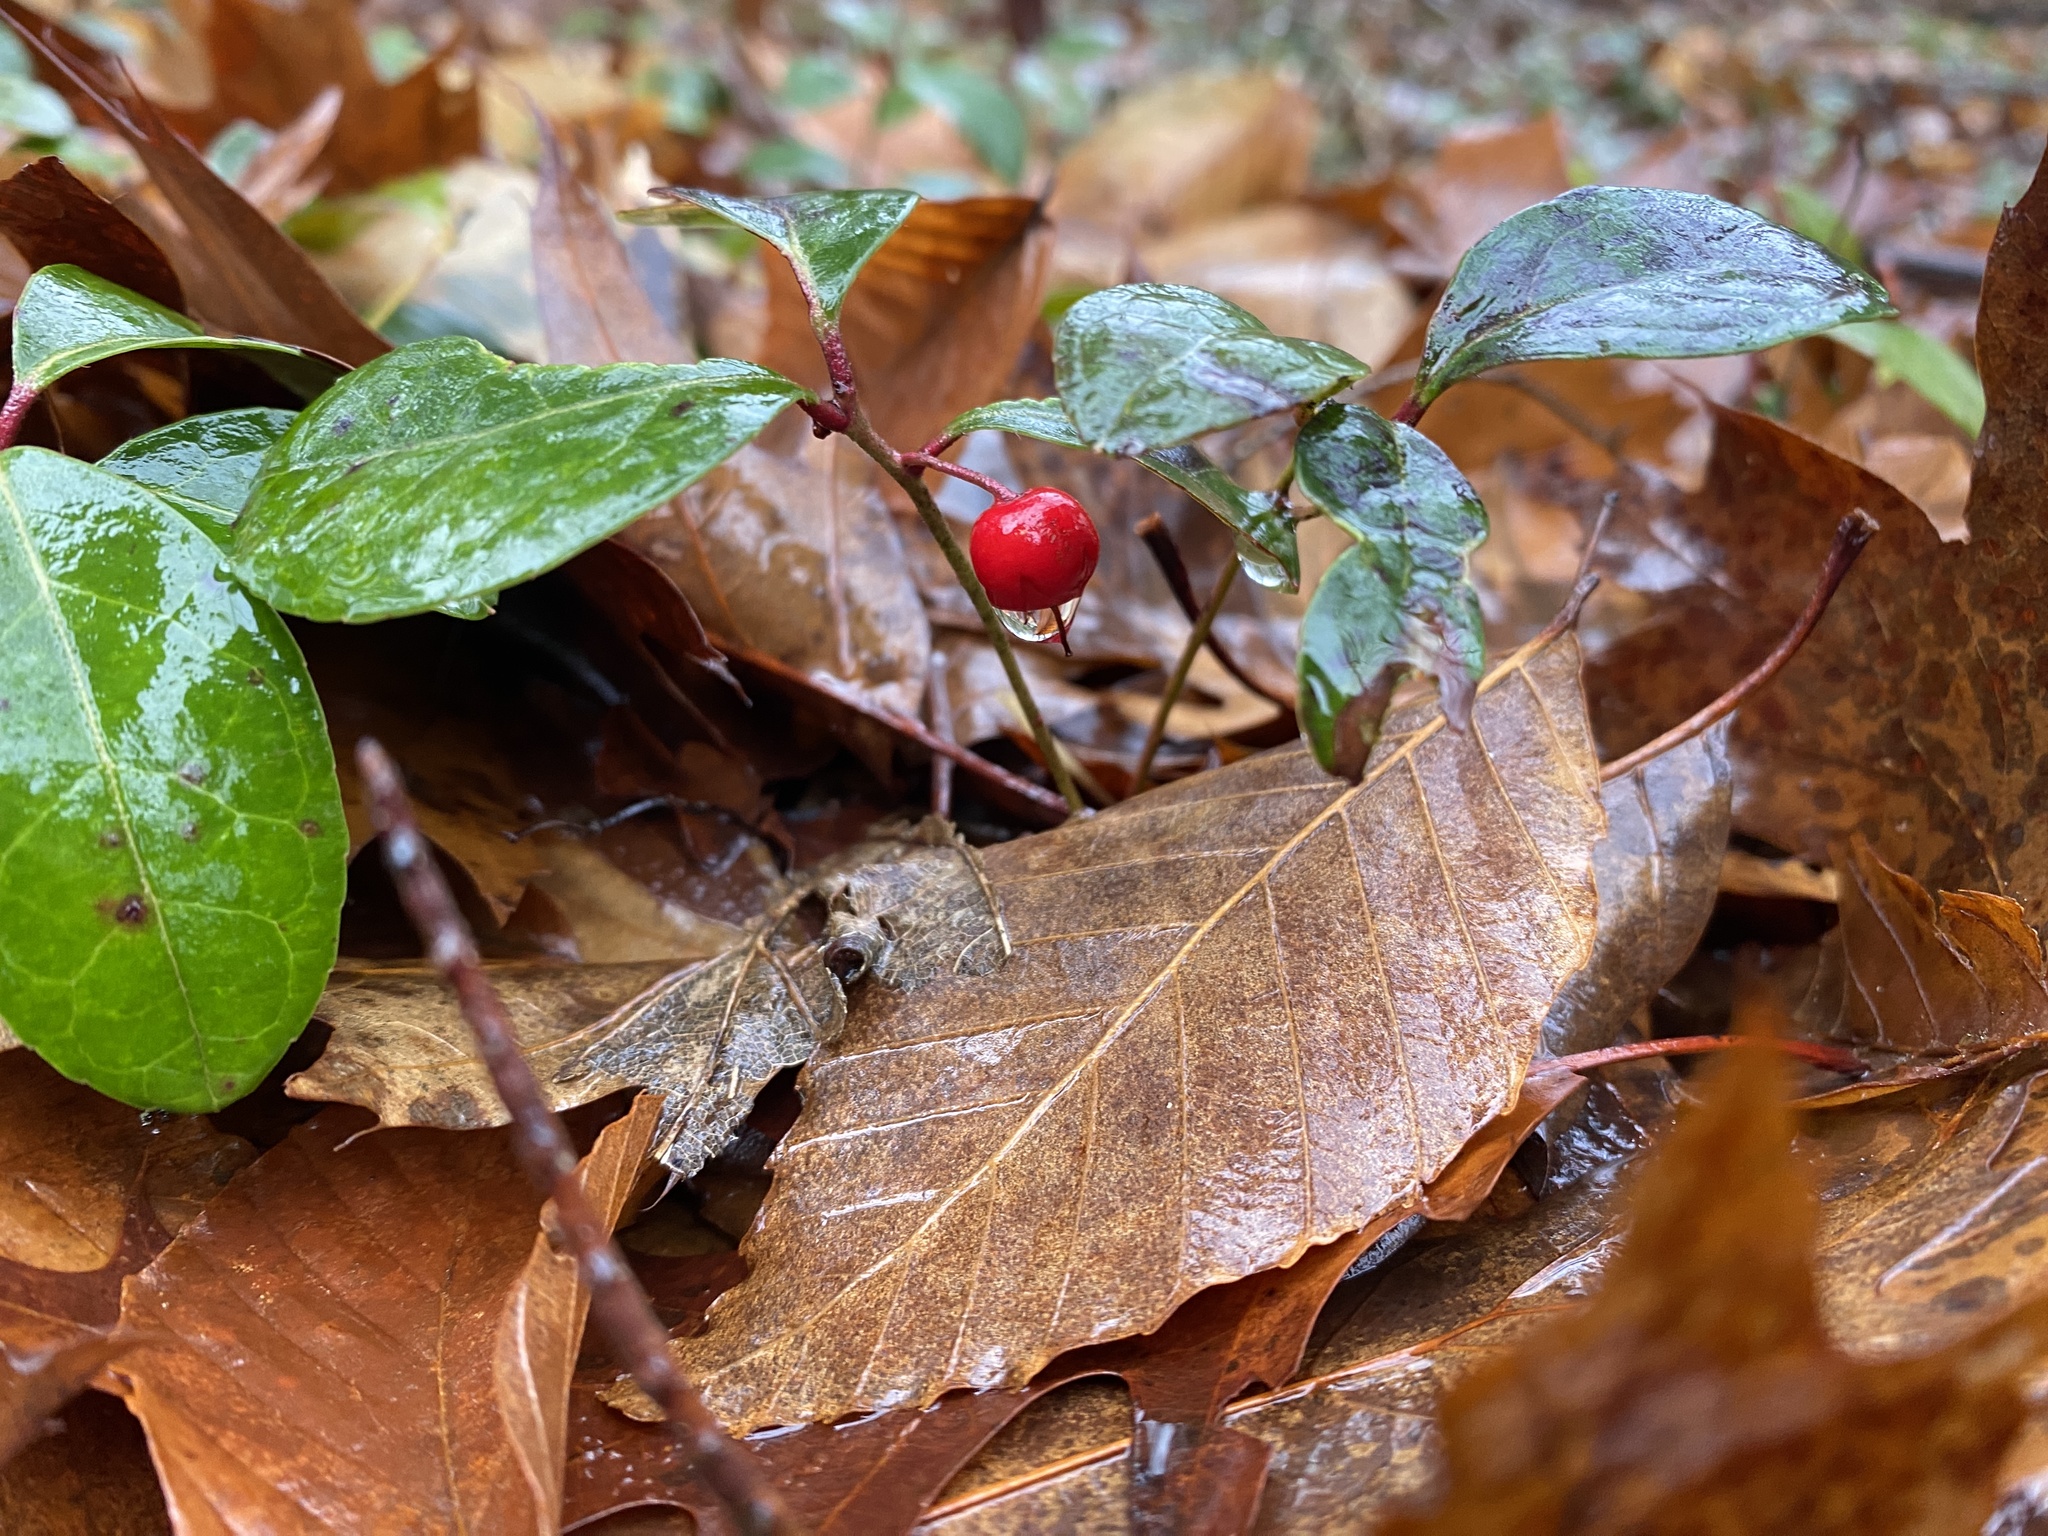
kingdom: Plantae
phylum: Tracheophyta
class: Magnoliopsida
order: Ericales
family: Ericaceae
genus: Gaultheria
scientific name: Gaultheria procumbens
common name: Checkerberry
